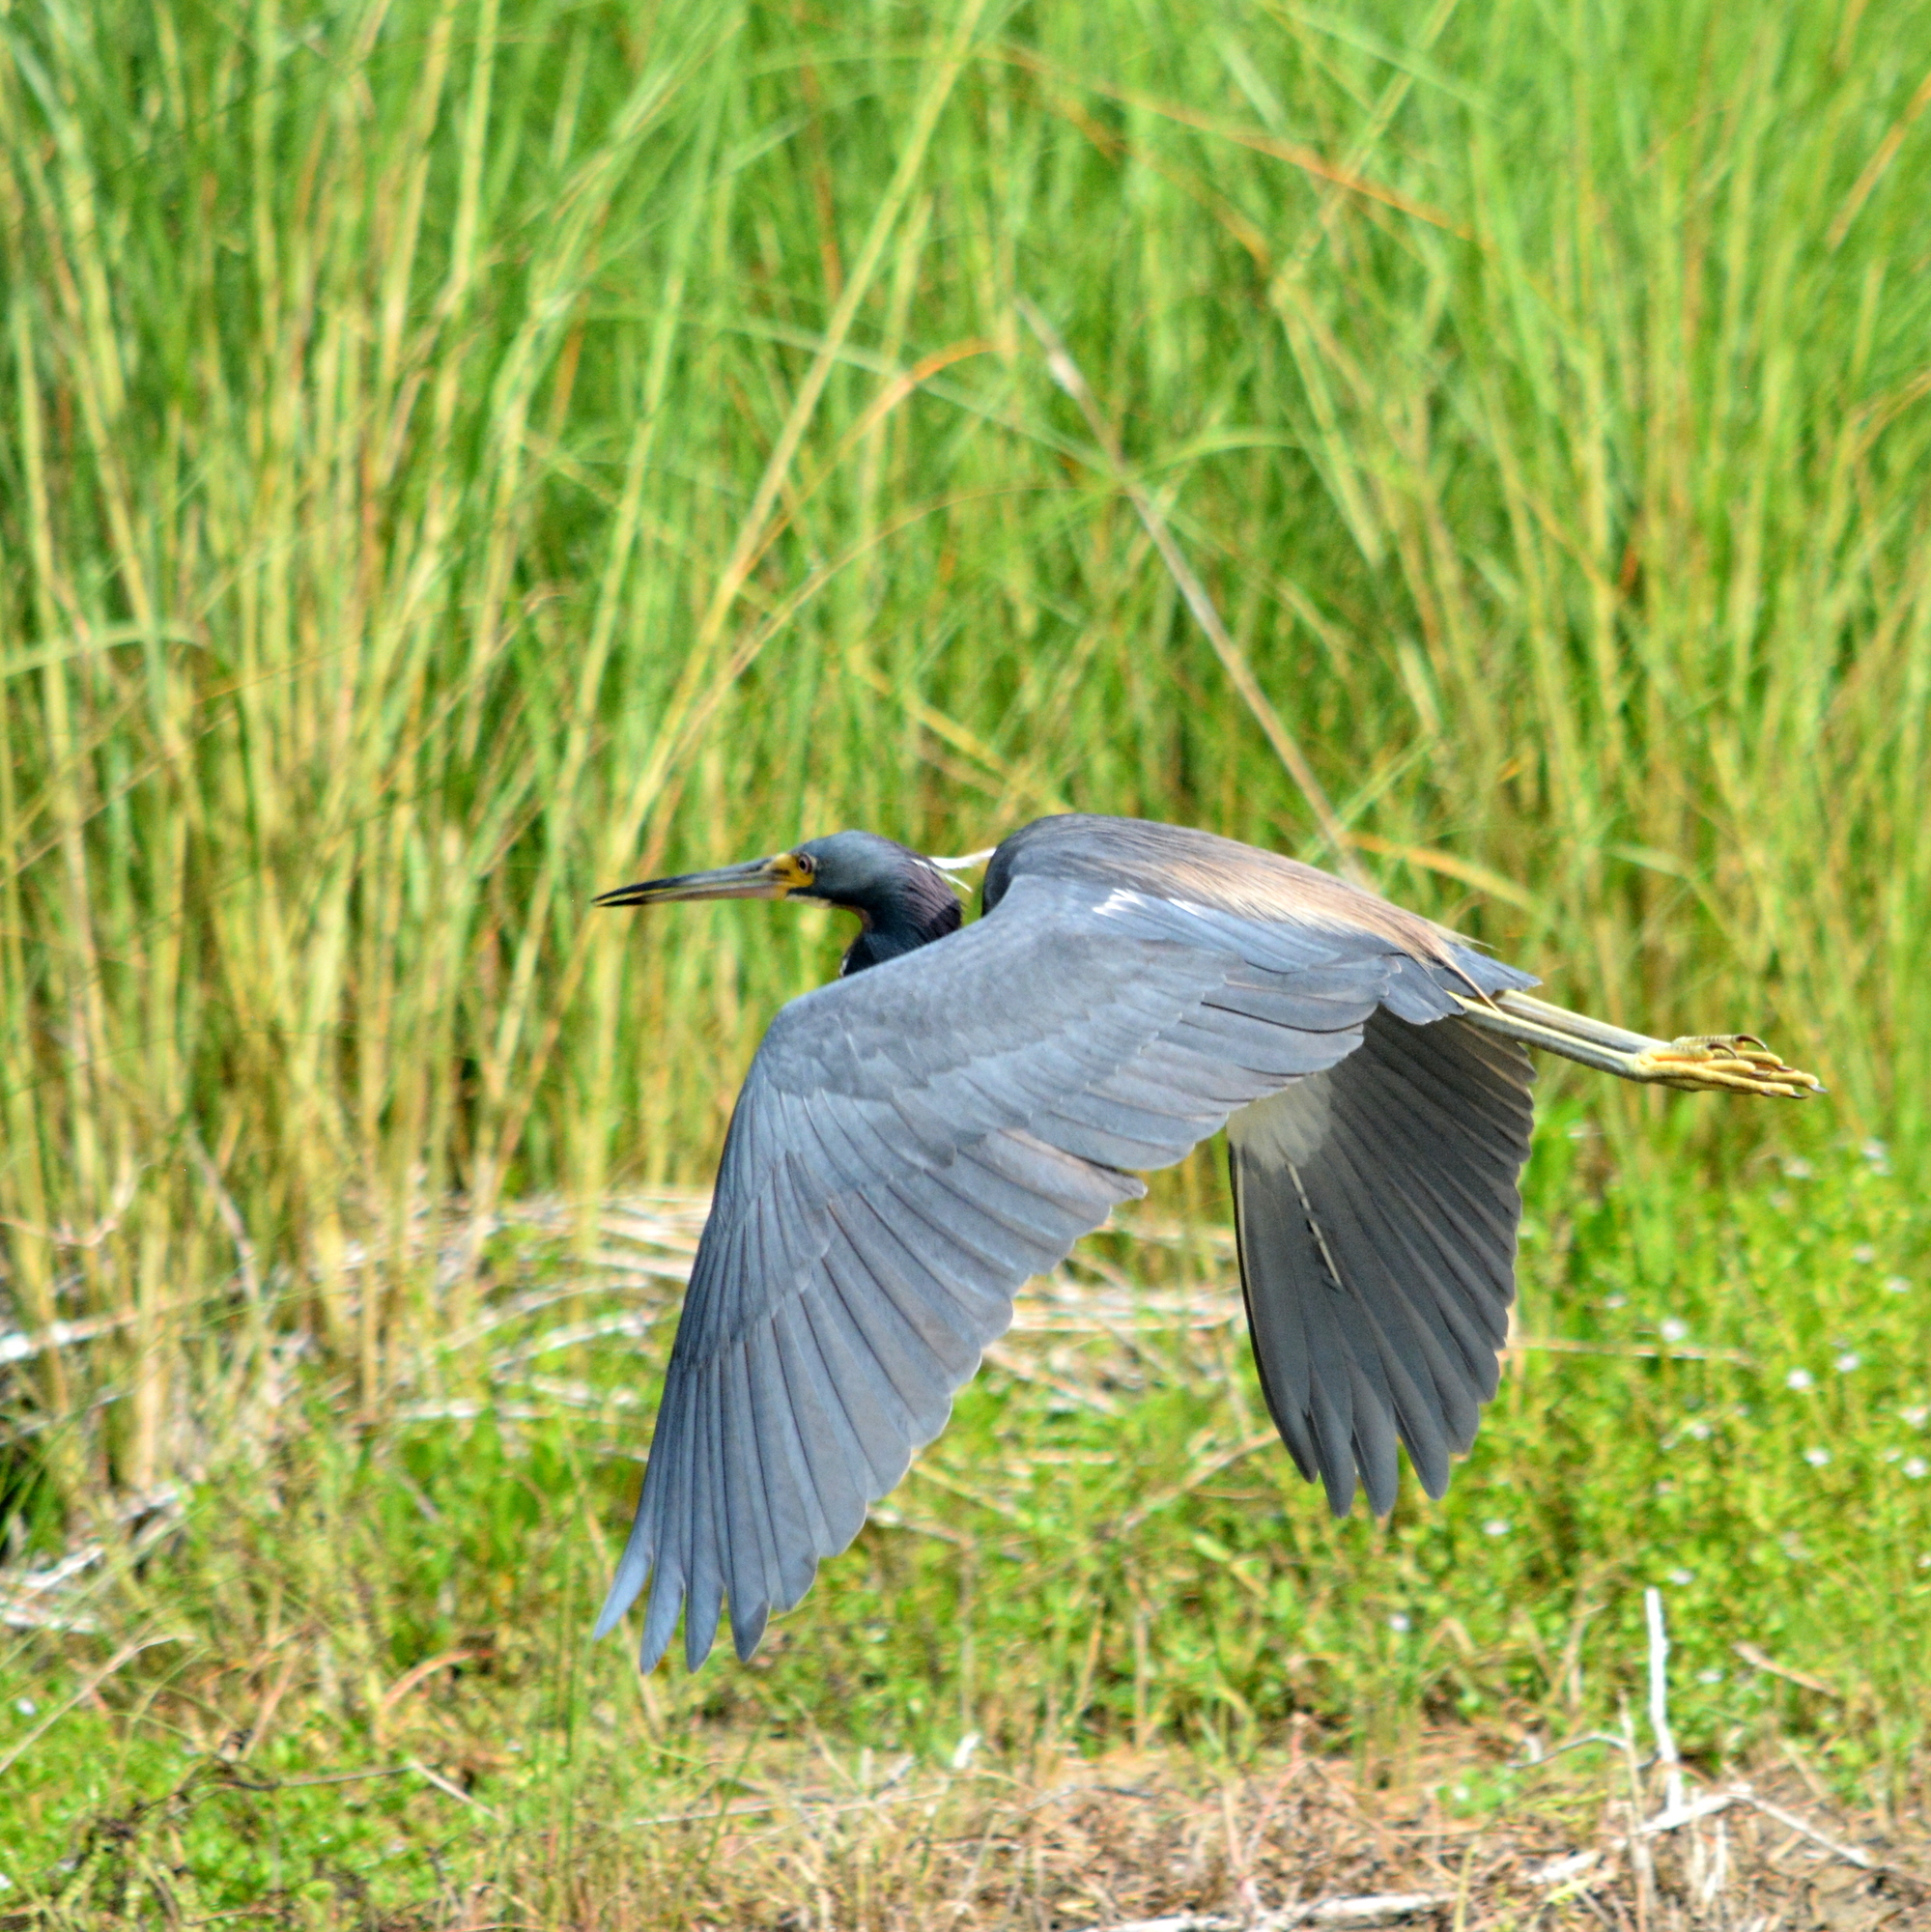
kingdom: Animalia
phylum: Chordata
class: Aves
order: Pelecaniformes
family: Ardeidae
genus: Egretta
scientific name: Egretta tricolor
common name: Tricolored heron
